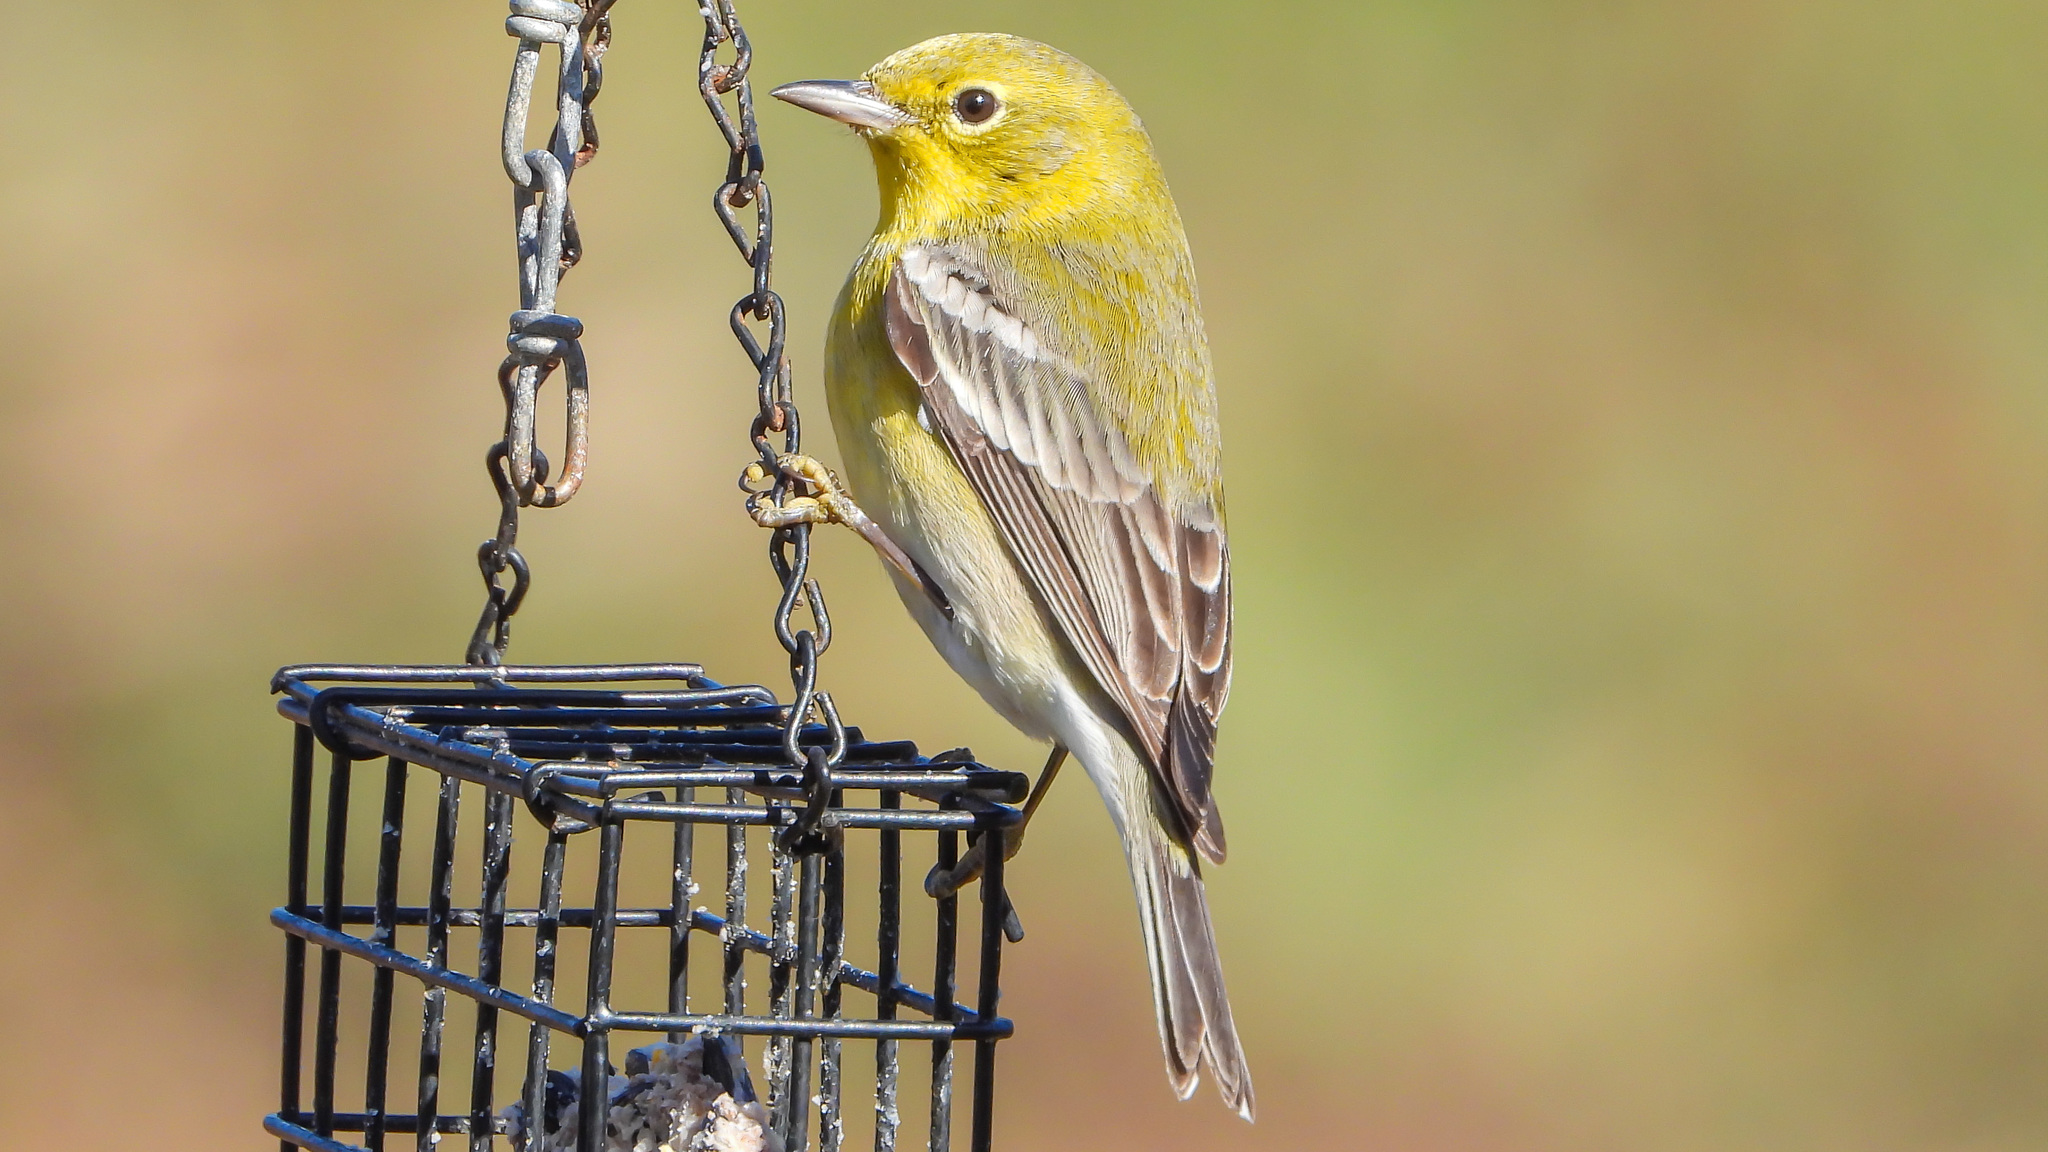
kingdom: Animalia
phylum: Chordata
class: Aves
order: Passeriformes
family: Parulidae
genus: Setophaga
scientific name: Setophaga pinus
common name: Pine warbler
